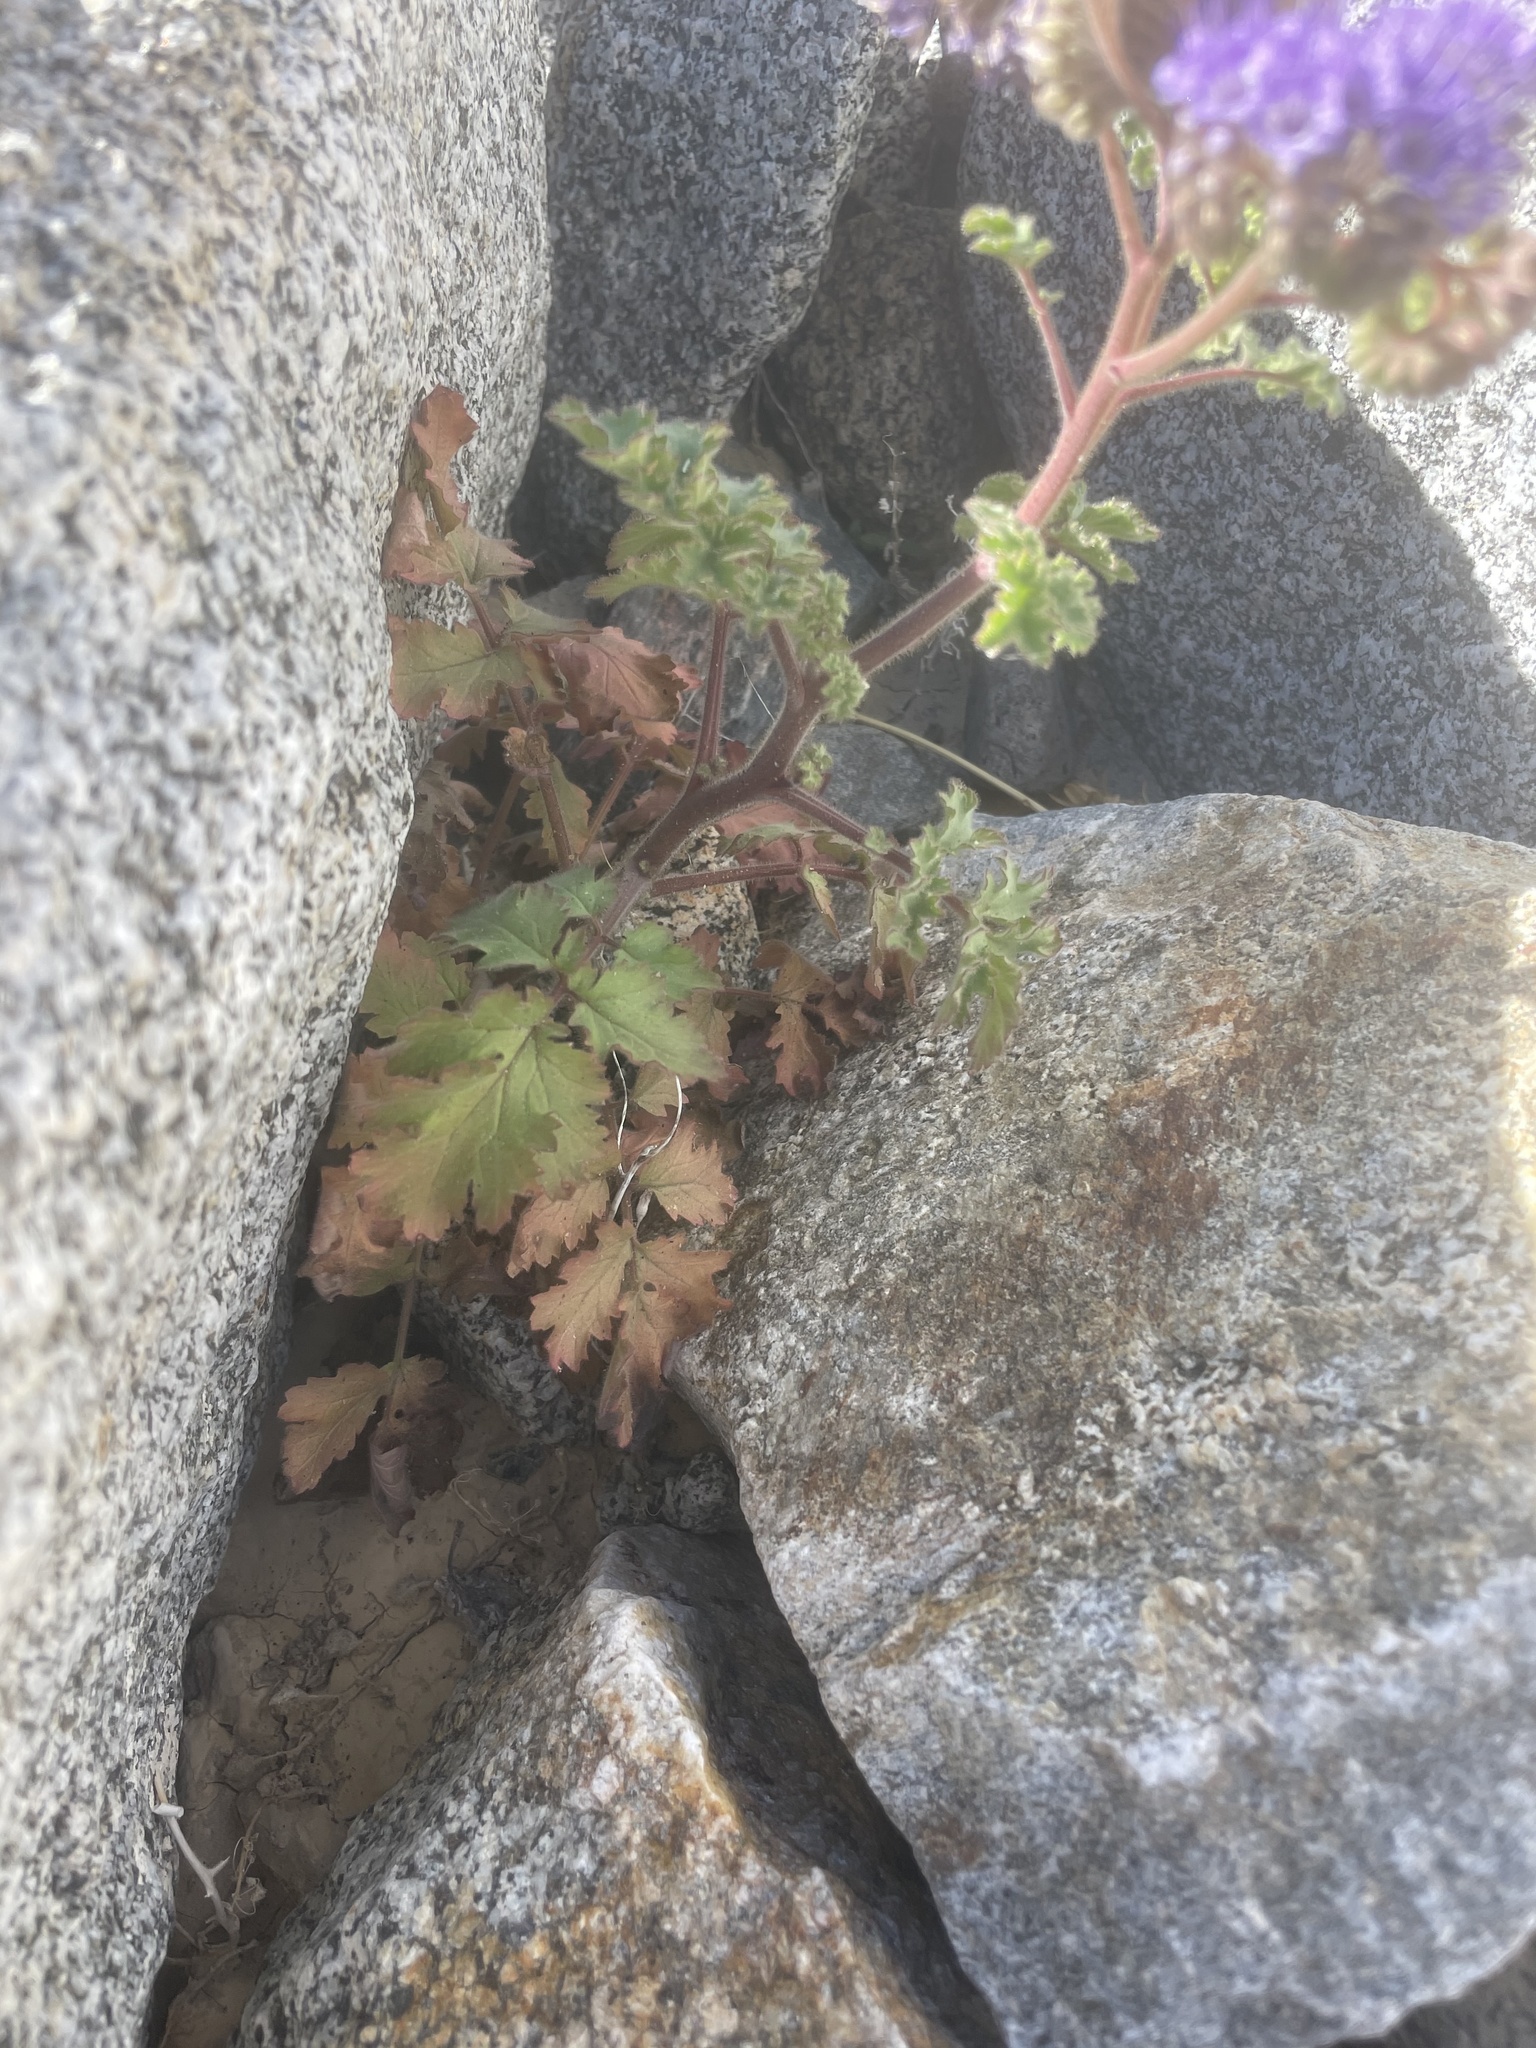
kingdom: Plantae
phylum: Tracheophyta
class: Magnoliopsida
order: Boraginales
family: Hydrophyllaceae
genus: Phacelia
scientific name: Phacelia pedicellata
